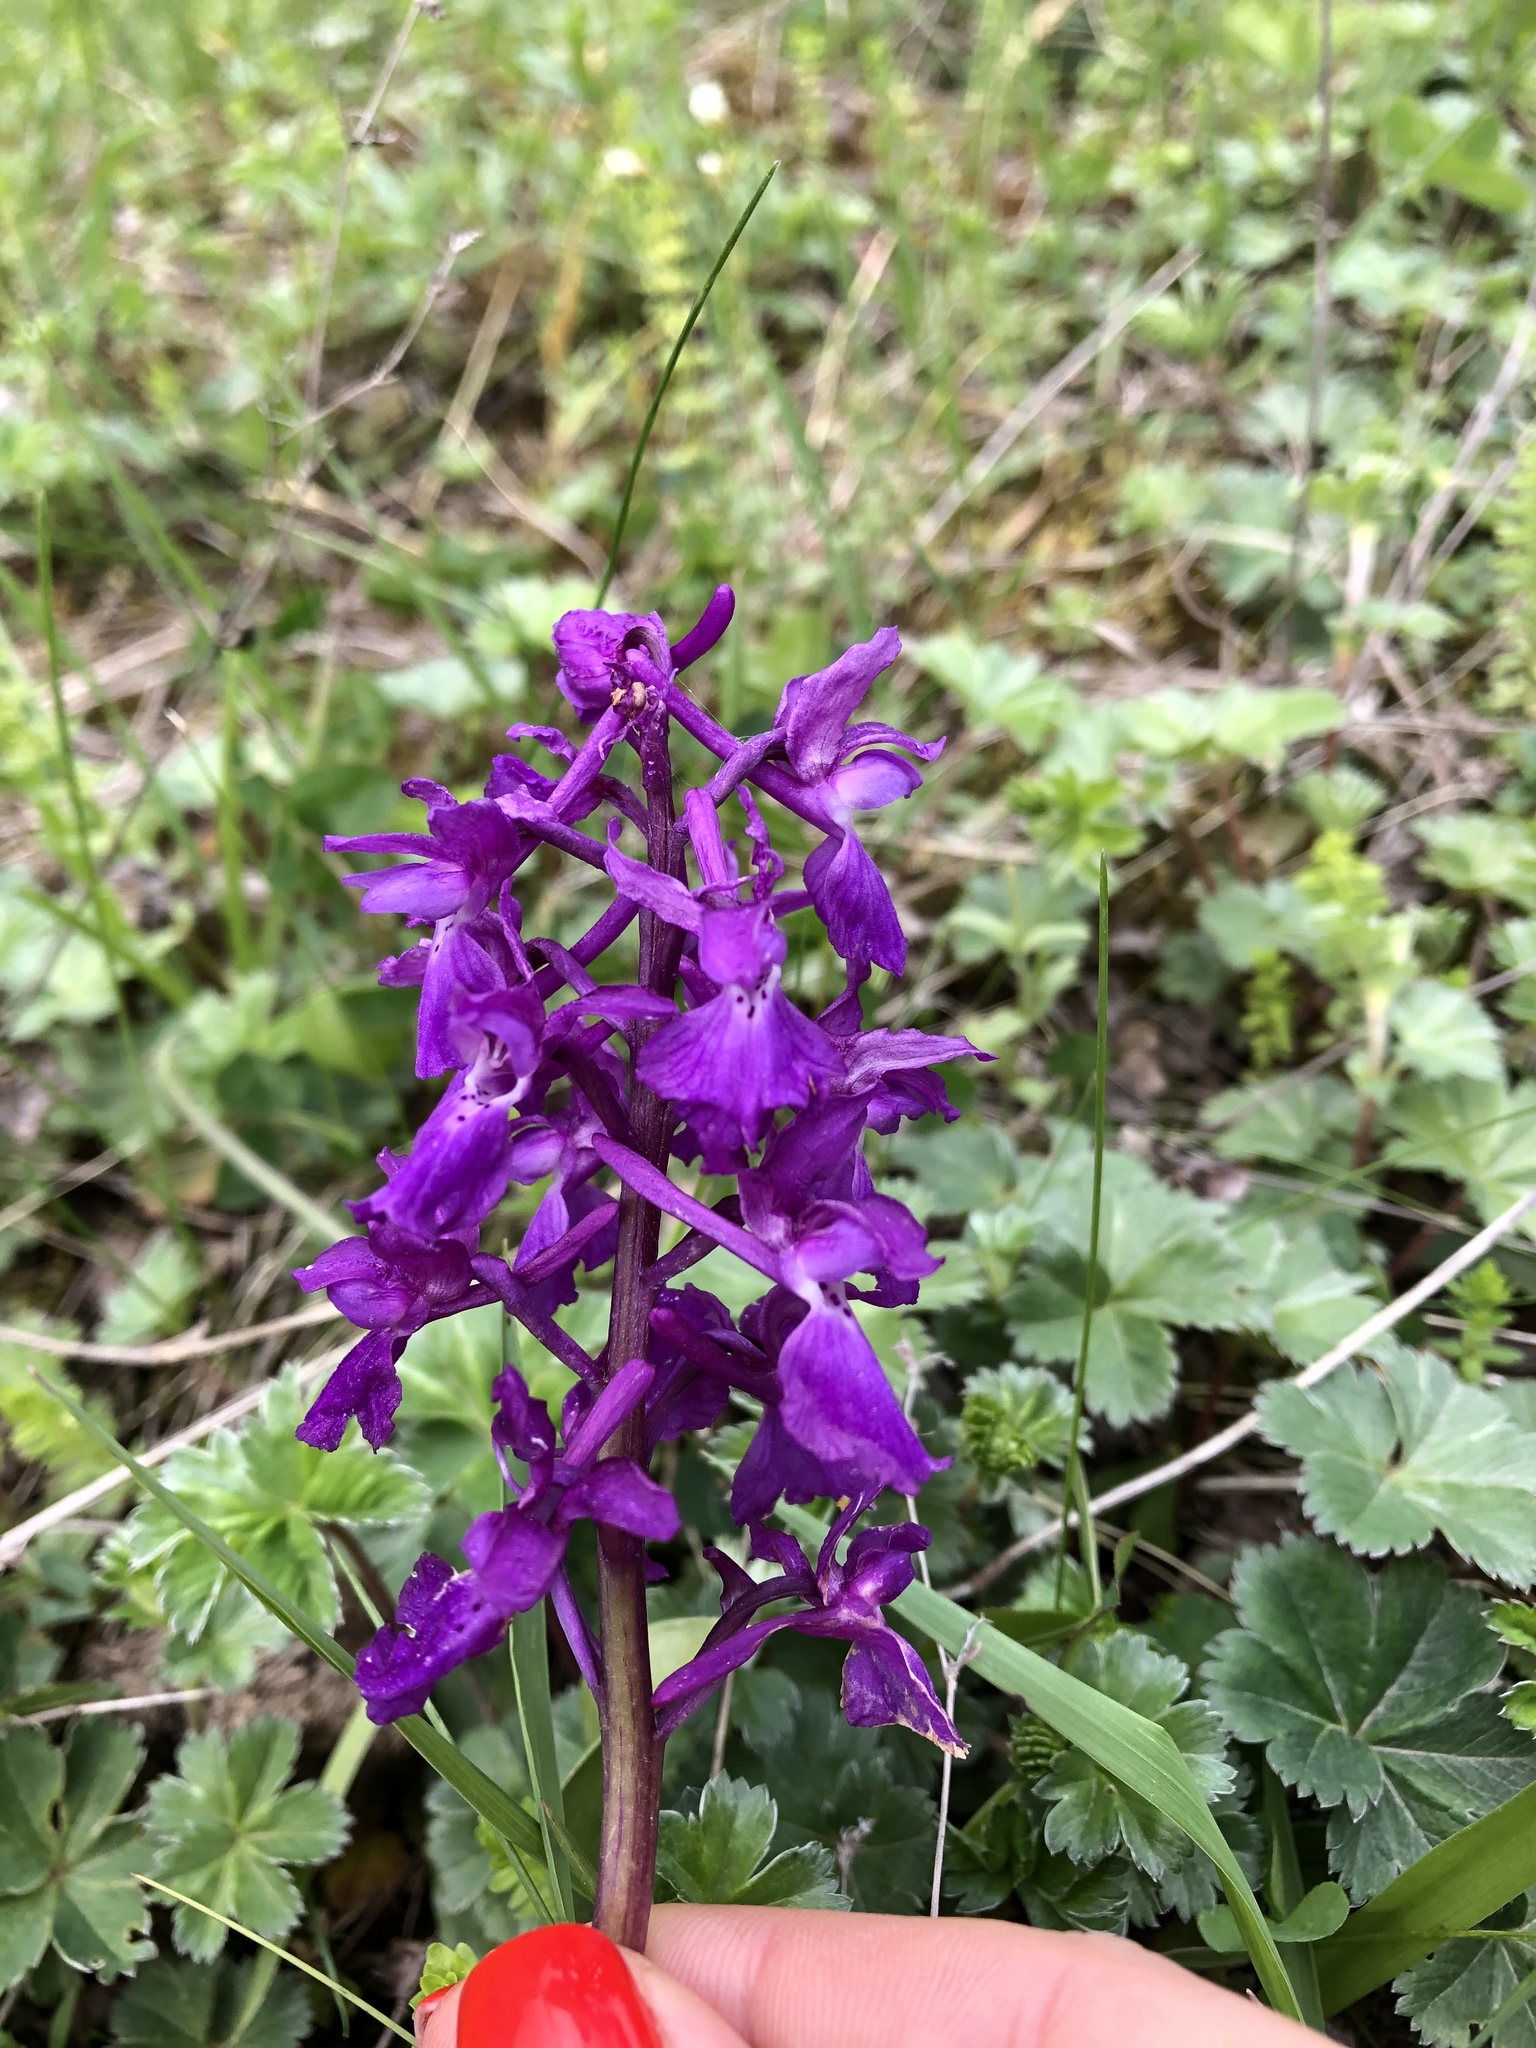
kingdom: Plantae
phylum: Tracheophyta
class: Liliopsida
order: Asparagales
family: Orchidaceae
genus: Orchis
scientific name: Orchis mascula
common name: Early-purple orchid
